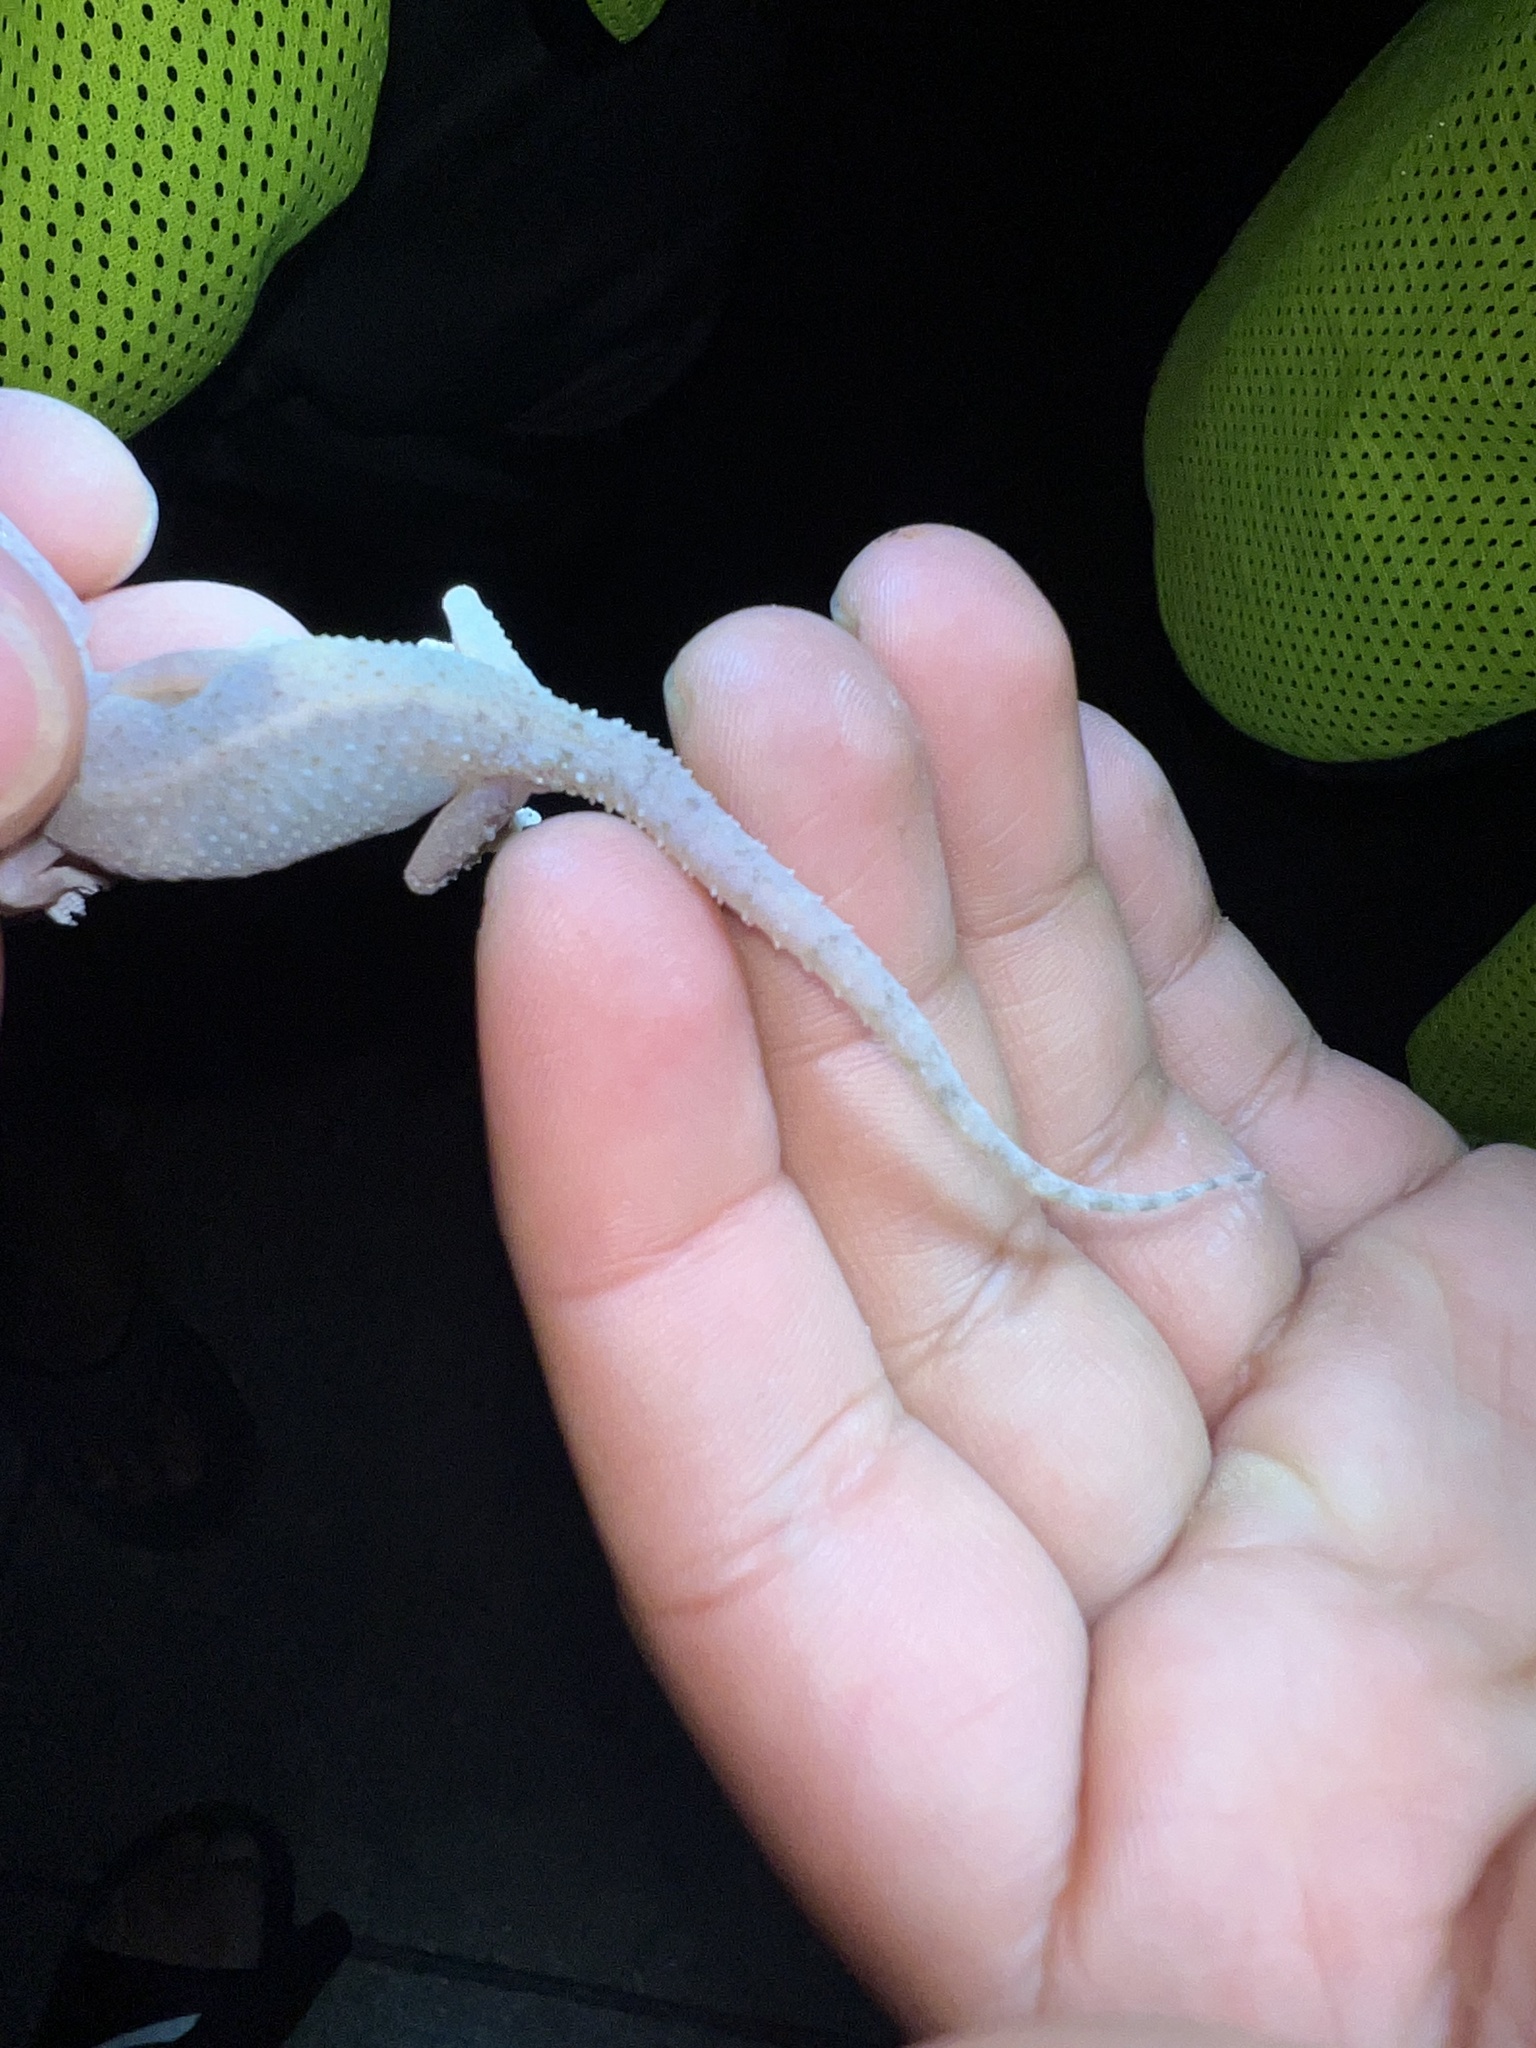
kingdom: Animalia
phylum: Chordata
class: Squamata
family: Gekkonidae
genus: Hemidactylus
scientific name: Hemidactylus parvimaculatus
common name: Spotted house gecko
